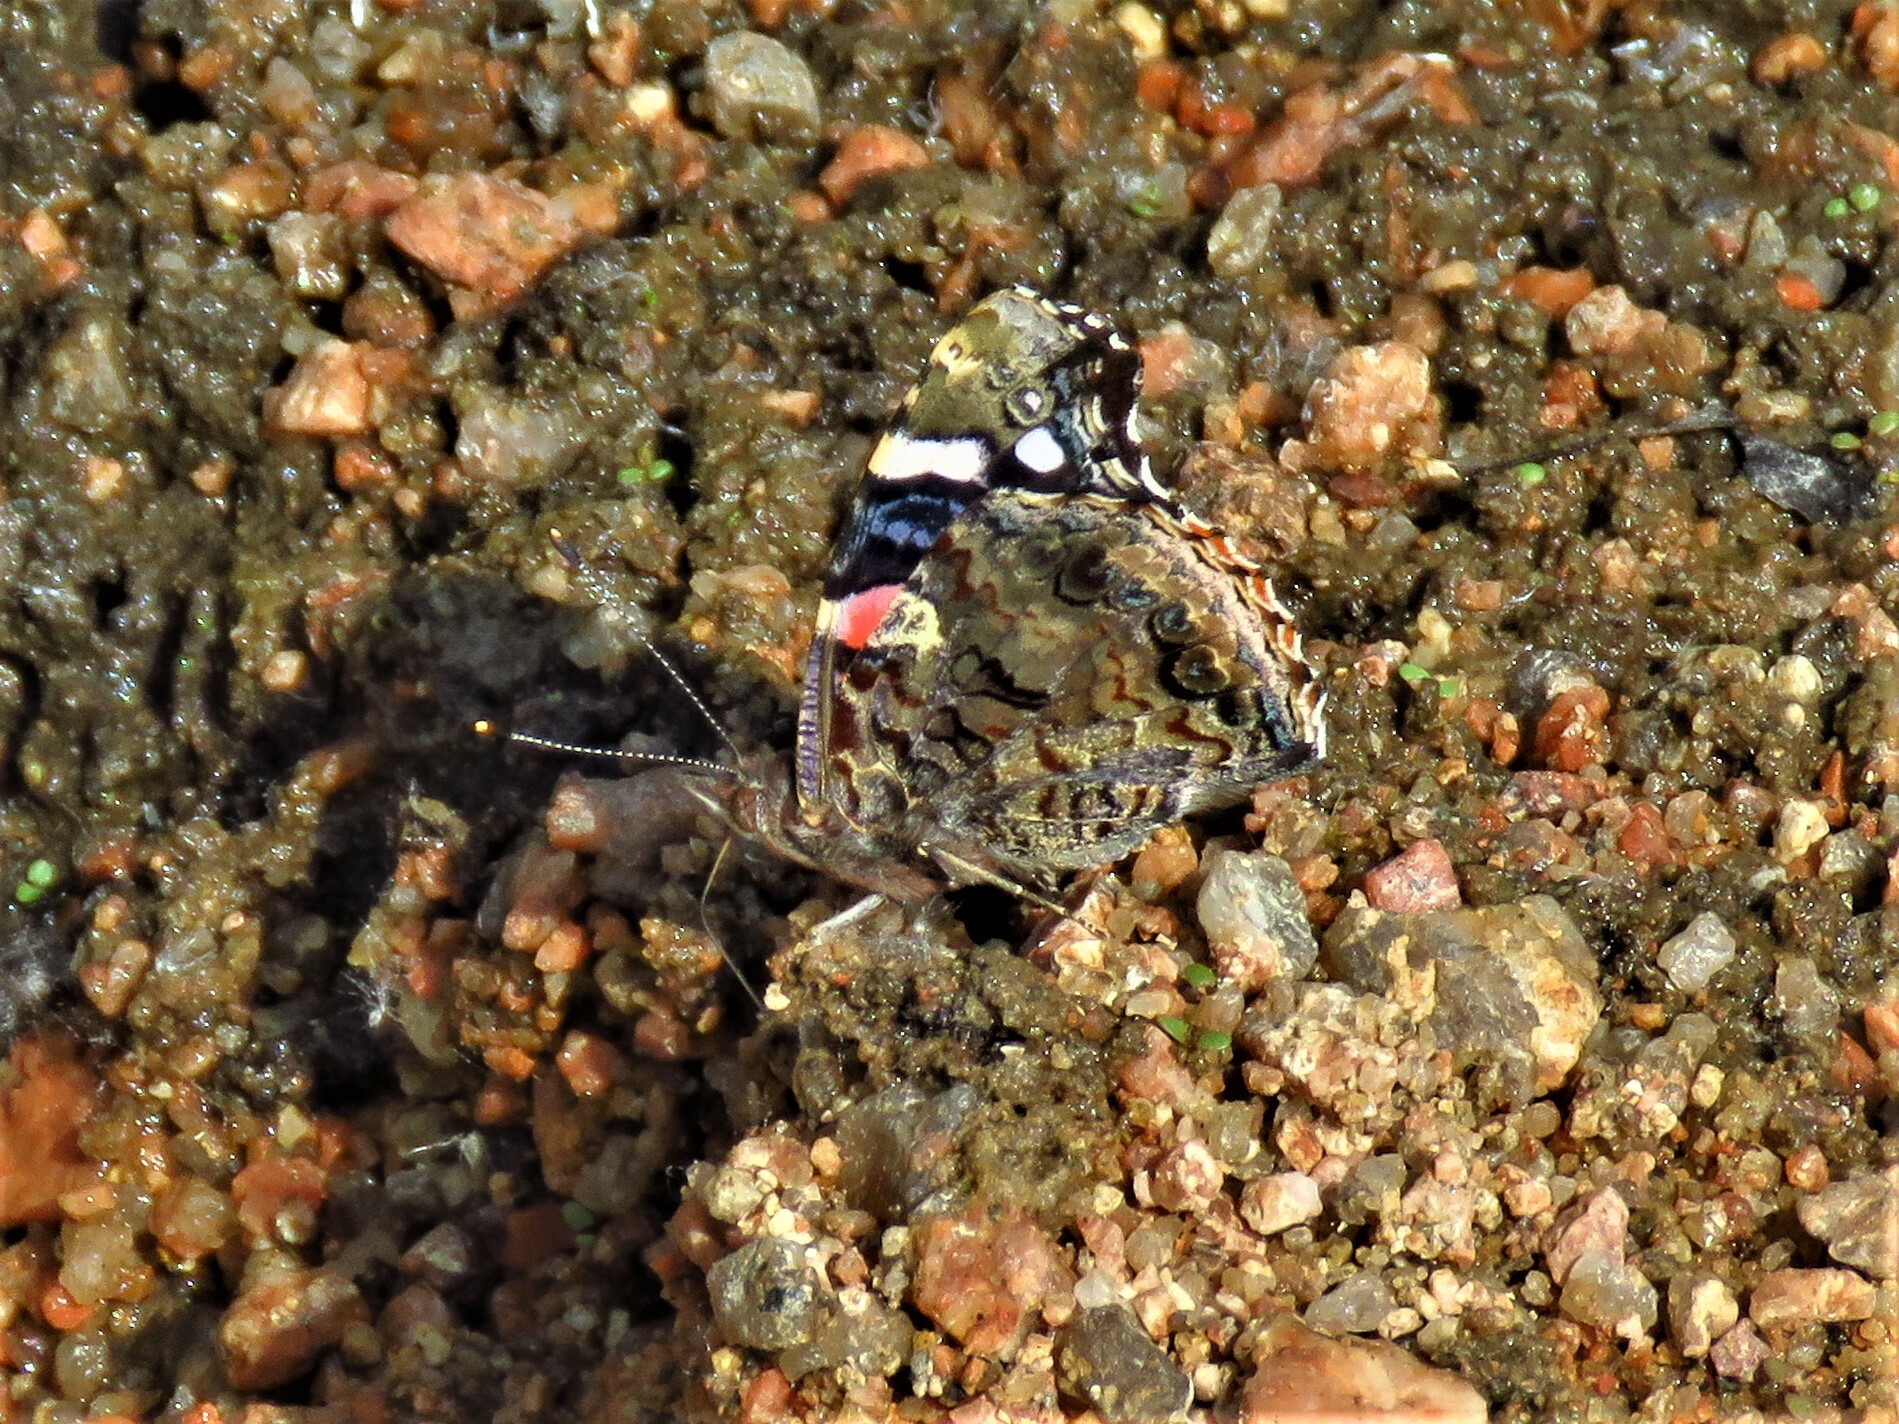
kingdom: Animalia
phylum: Arthropoda
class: Insecta
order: Lepidoptera
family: Nymphalidae
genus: Vanessa
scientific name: Vanessa atalanta
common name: Red admiral
